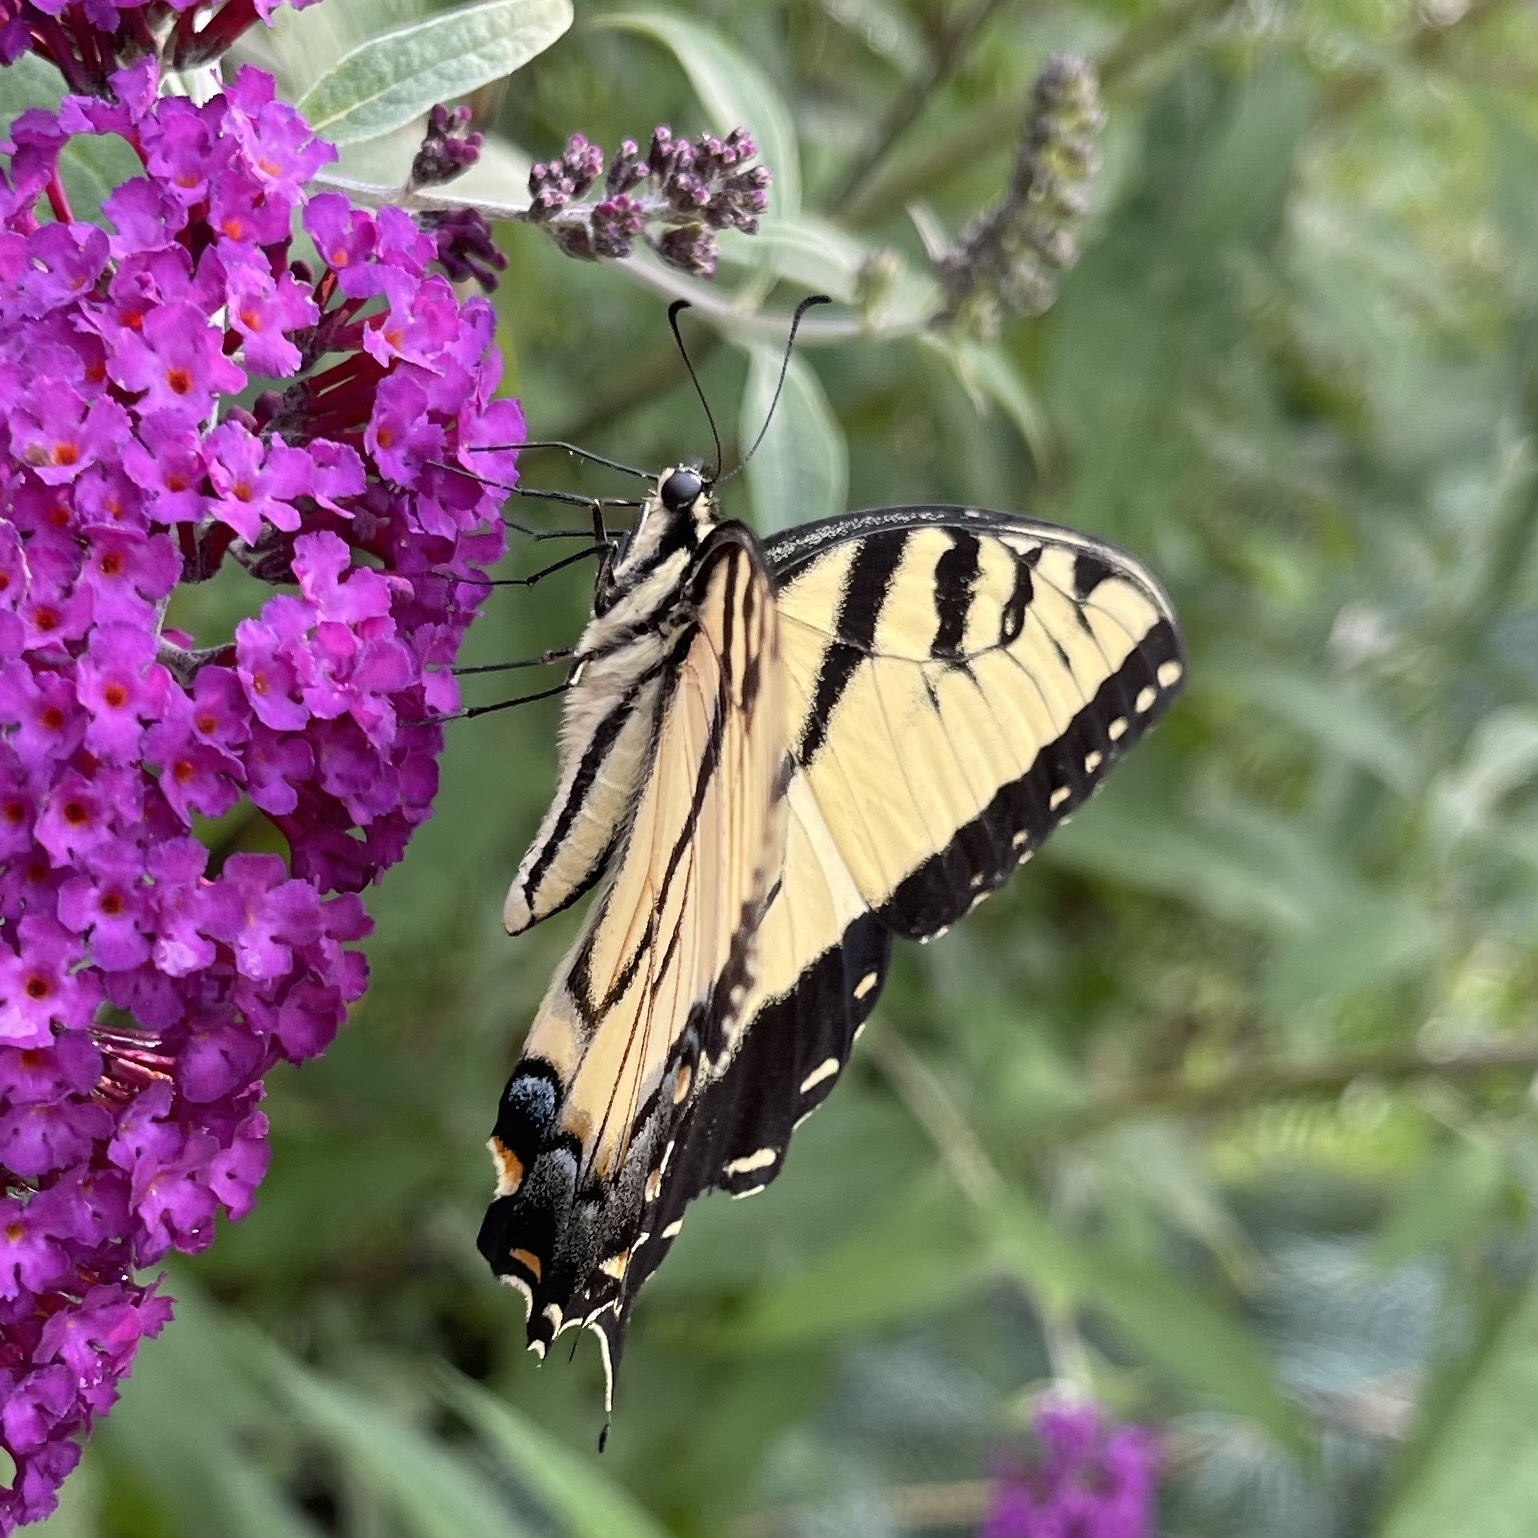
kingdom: Animalia
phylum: Arthropoda
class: Insecta
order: Lepidoptera
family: Papilionidae
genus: Papilio
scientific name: Papilio glaucus
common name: Tiger swallowtail
